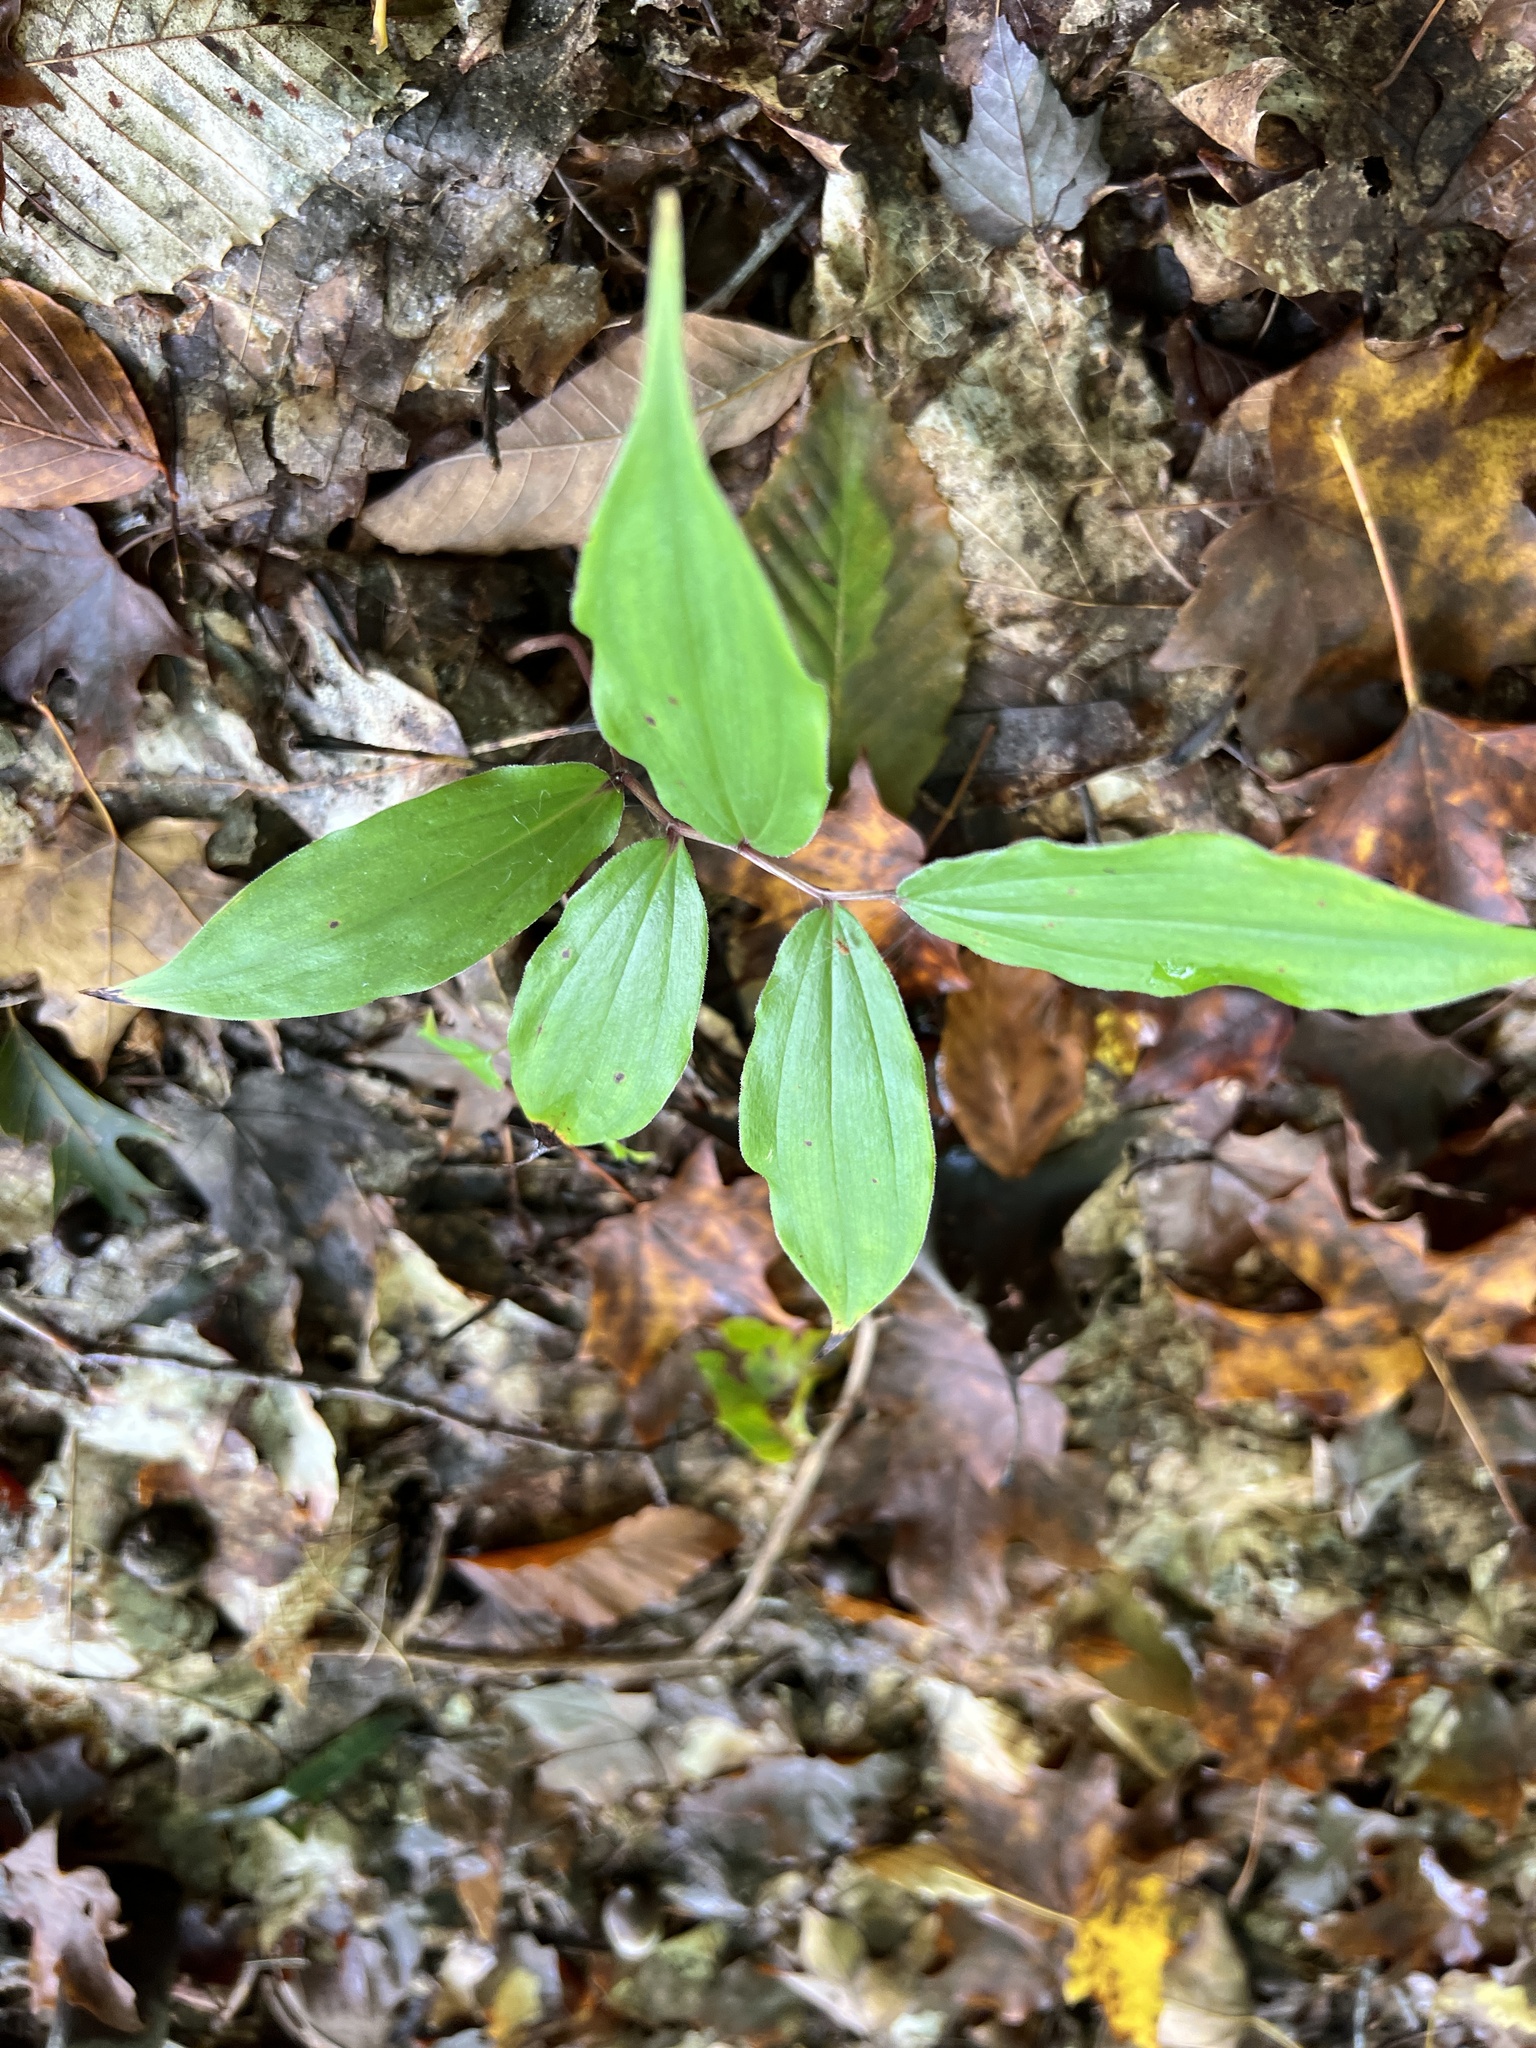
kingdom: Plantae
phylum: Tracheophyta
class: Liliopsida
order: Asparagales
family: Asparagaceae
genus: Maianthemum
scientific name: Maianthemum racemosum
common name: False spikenard
